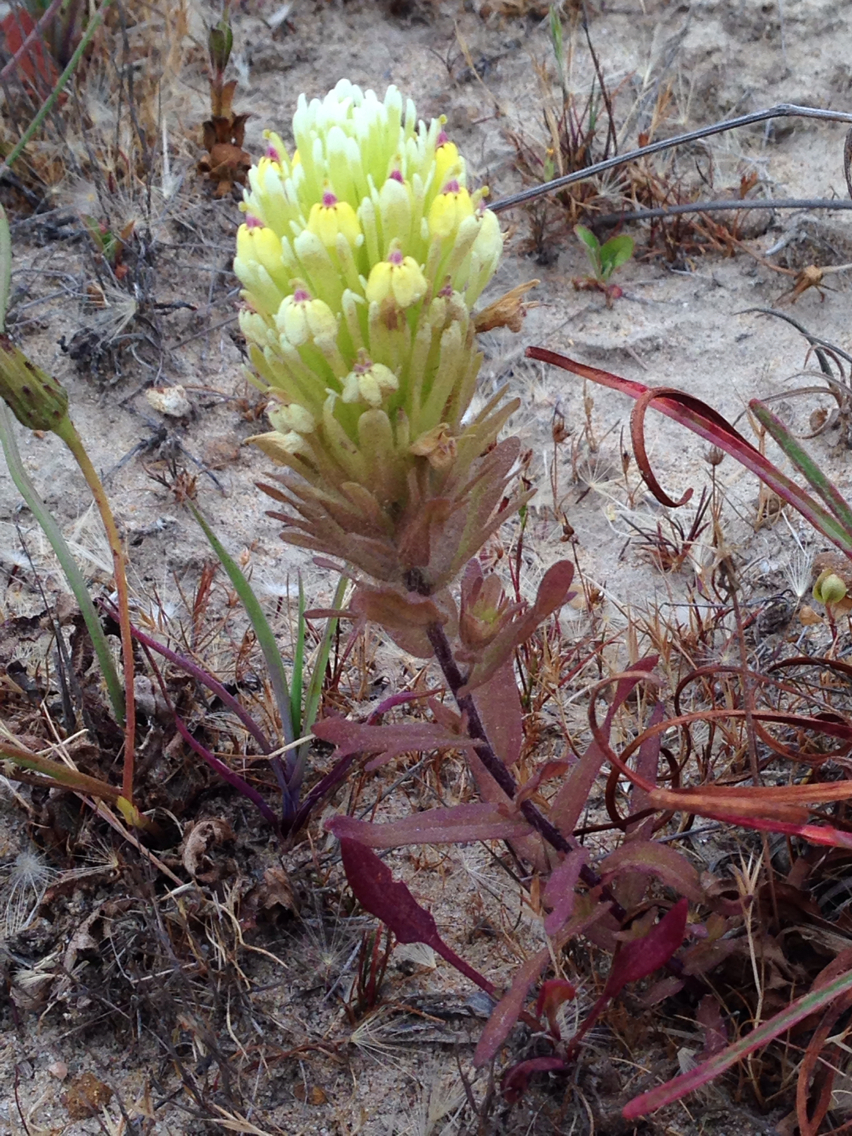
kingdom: Plantae
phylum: Tracheophyta
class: Magnoliopsida
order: Lamiales
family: Orobanchaceae
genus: Castilleja
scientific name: Castilleja ambigua
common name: Johnny-nip
